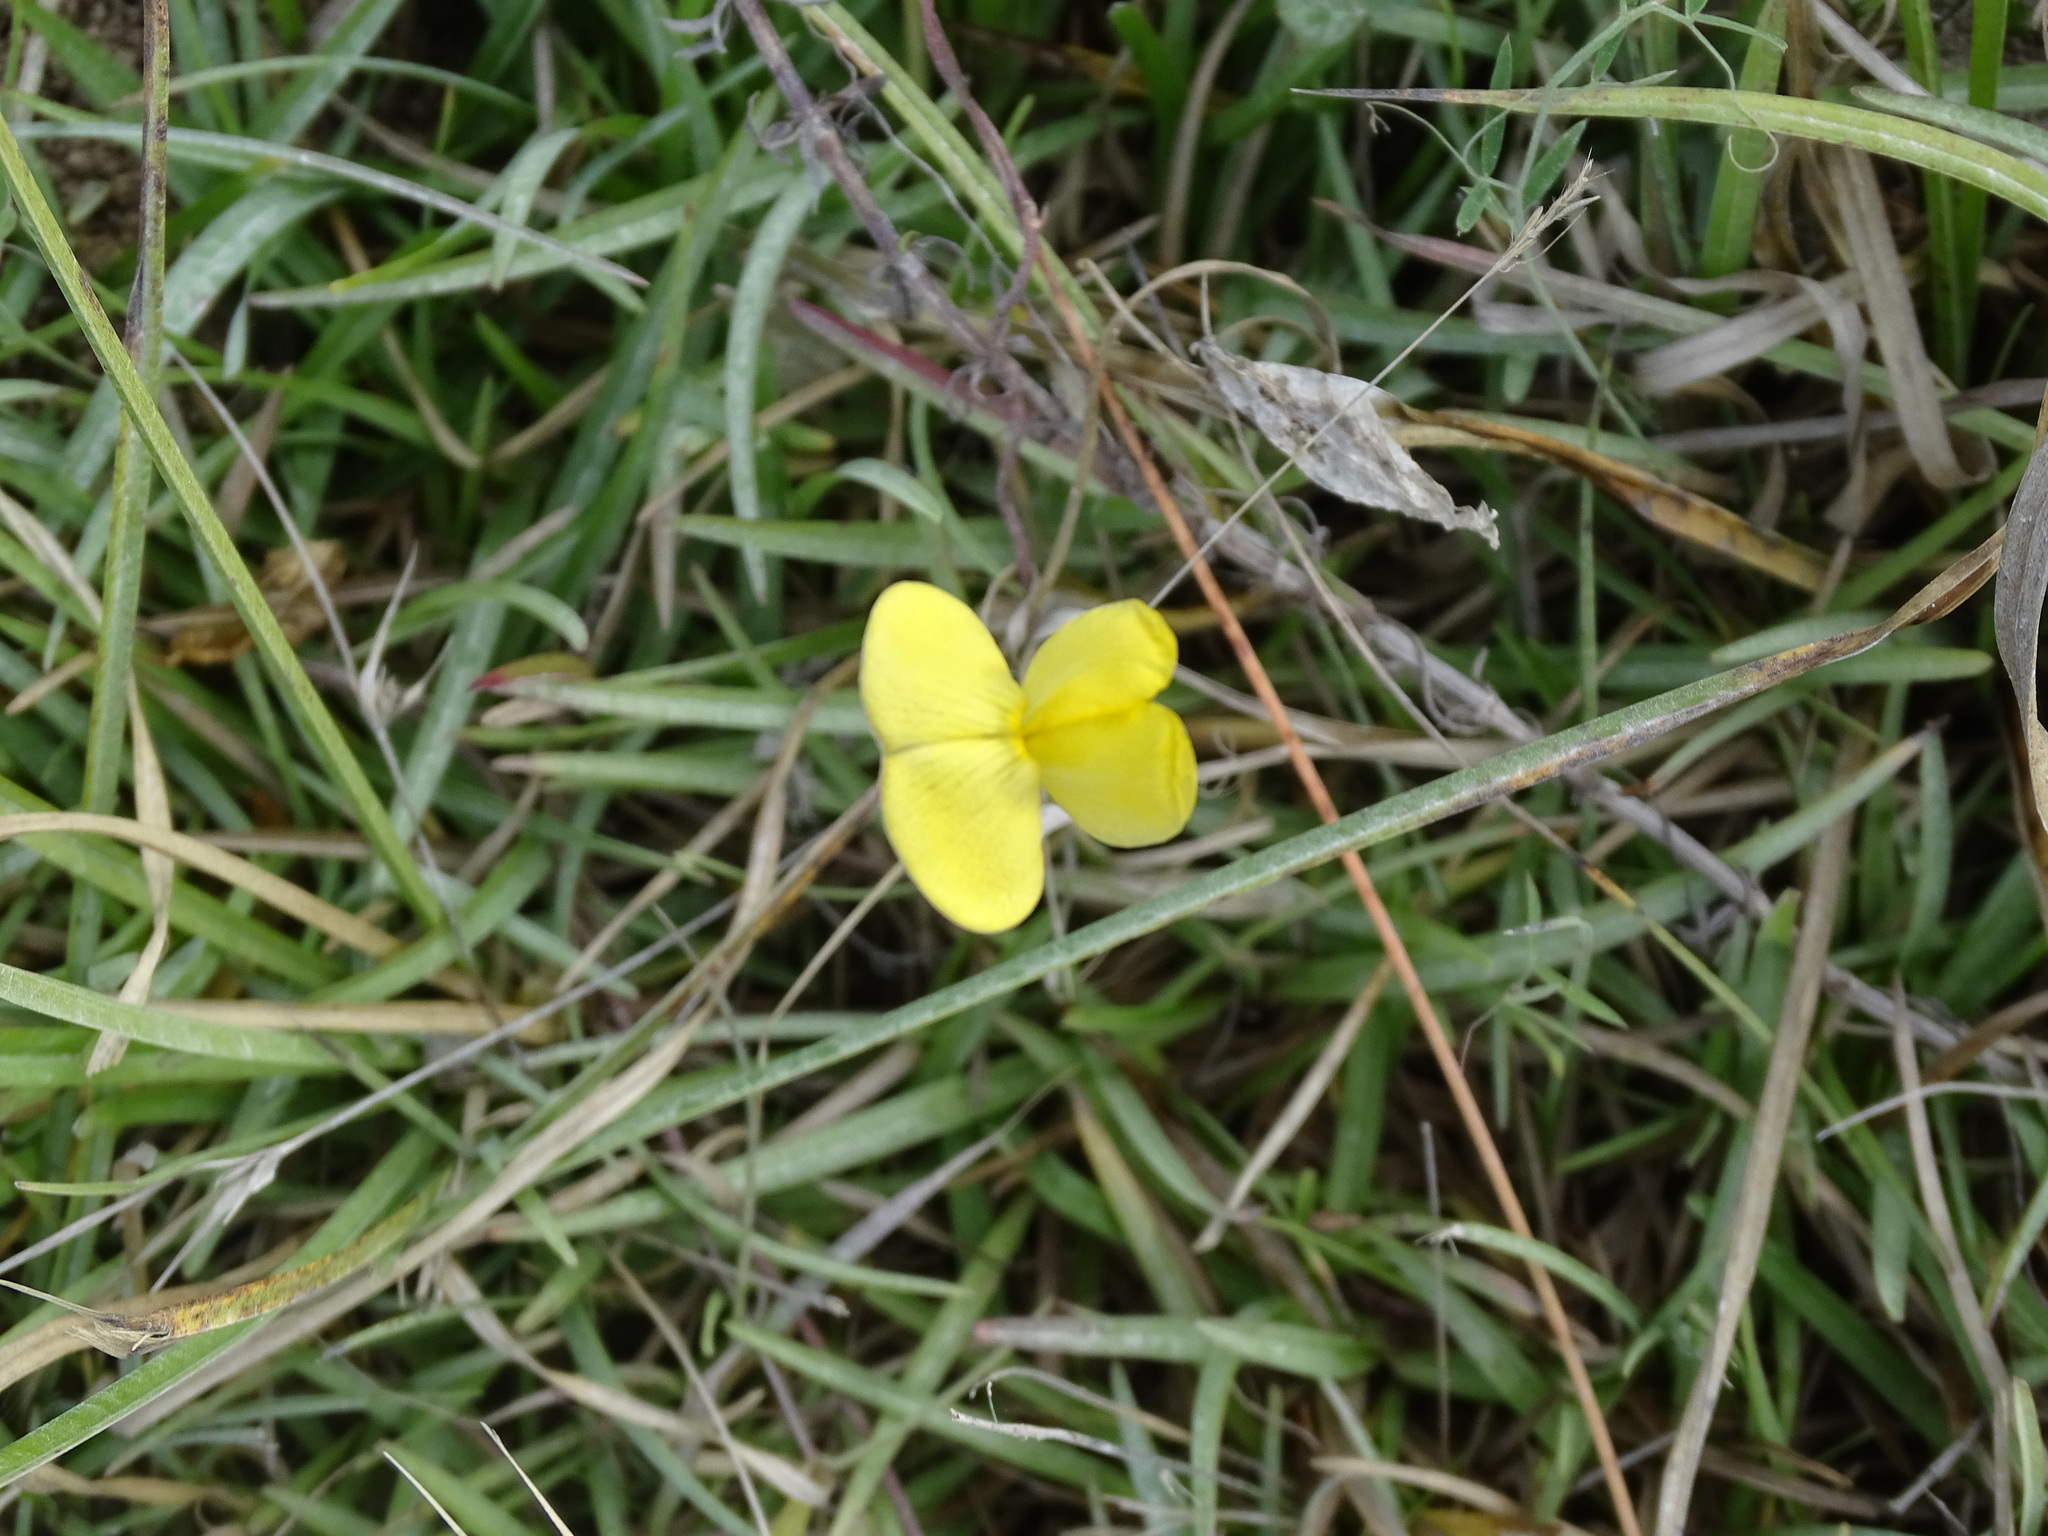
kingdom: Plantae
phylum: Tracheophyta
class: Magnoliopsida
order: Fabales
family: Fabaceae
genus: Vigna
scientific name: Vigna luteola
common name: Hairypod cowpea
